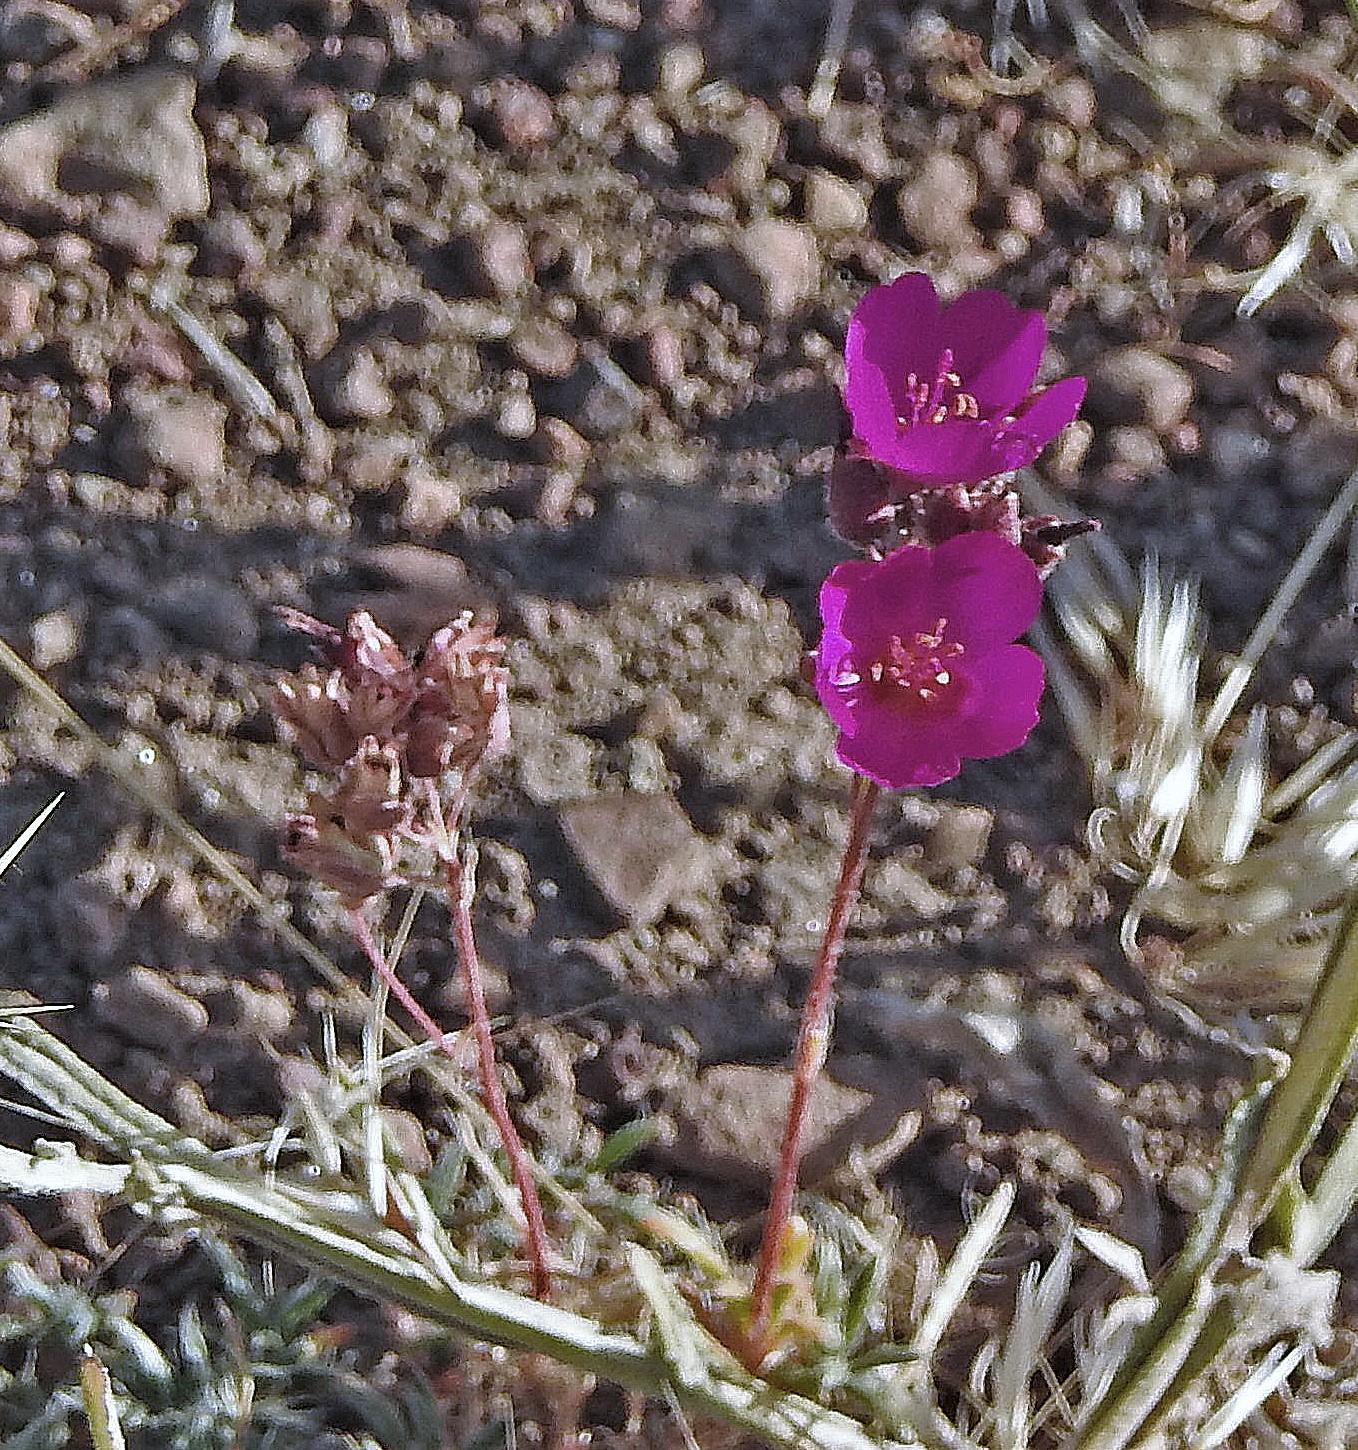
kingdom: Plantae
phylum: Tracheophyta
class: Magnoliopsida
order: Caryophyllales
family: Montiaceae
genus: Montiopsis
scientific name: Montiopsis umbellata
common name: Rock-purslane
